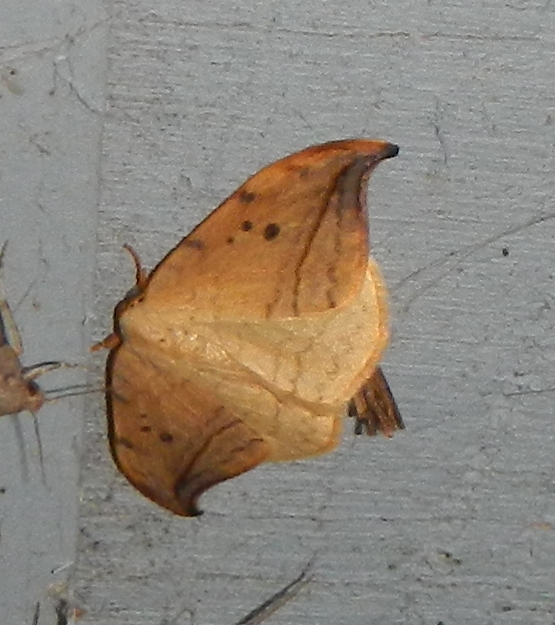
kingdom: Animalia
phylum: Arthropoda
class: Insecta
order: Lepidoptera
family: Drepanidae
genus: Drepana
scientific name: Drepana arcuata
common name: Arched hooktip moth
